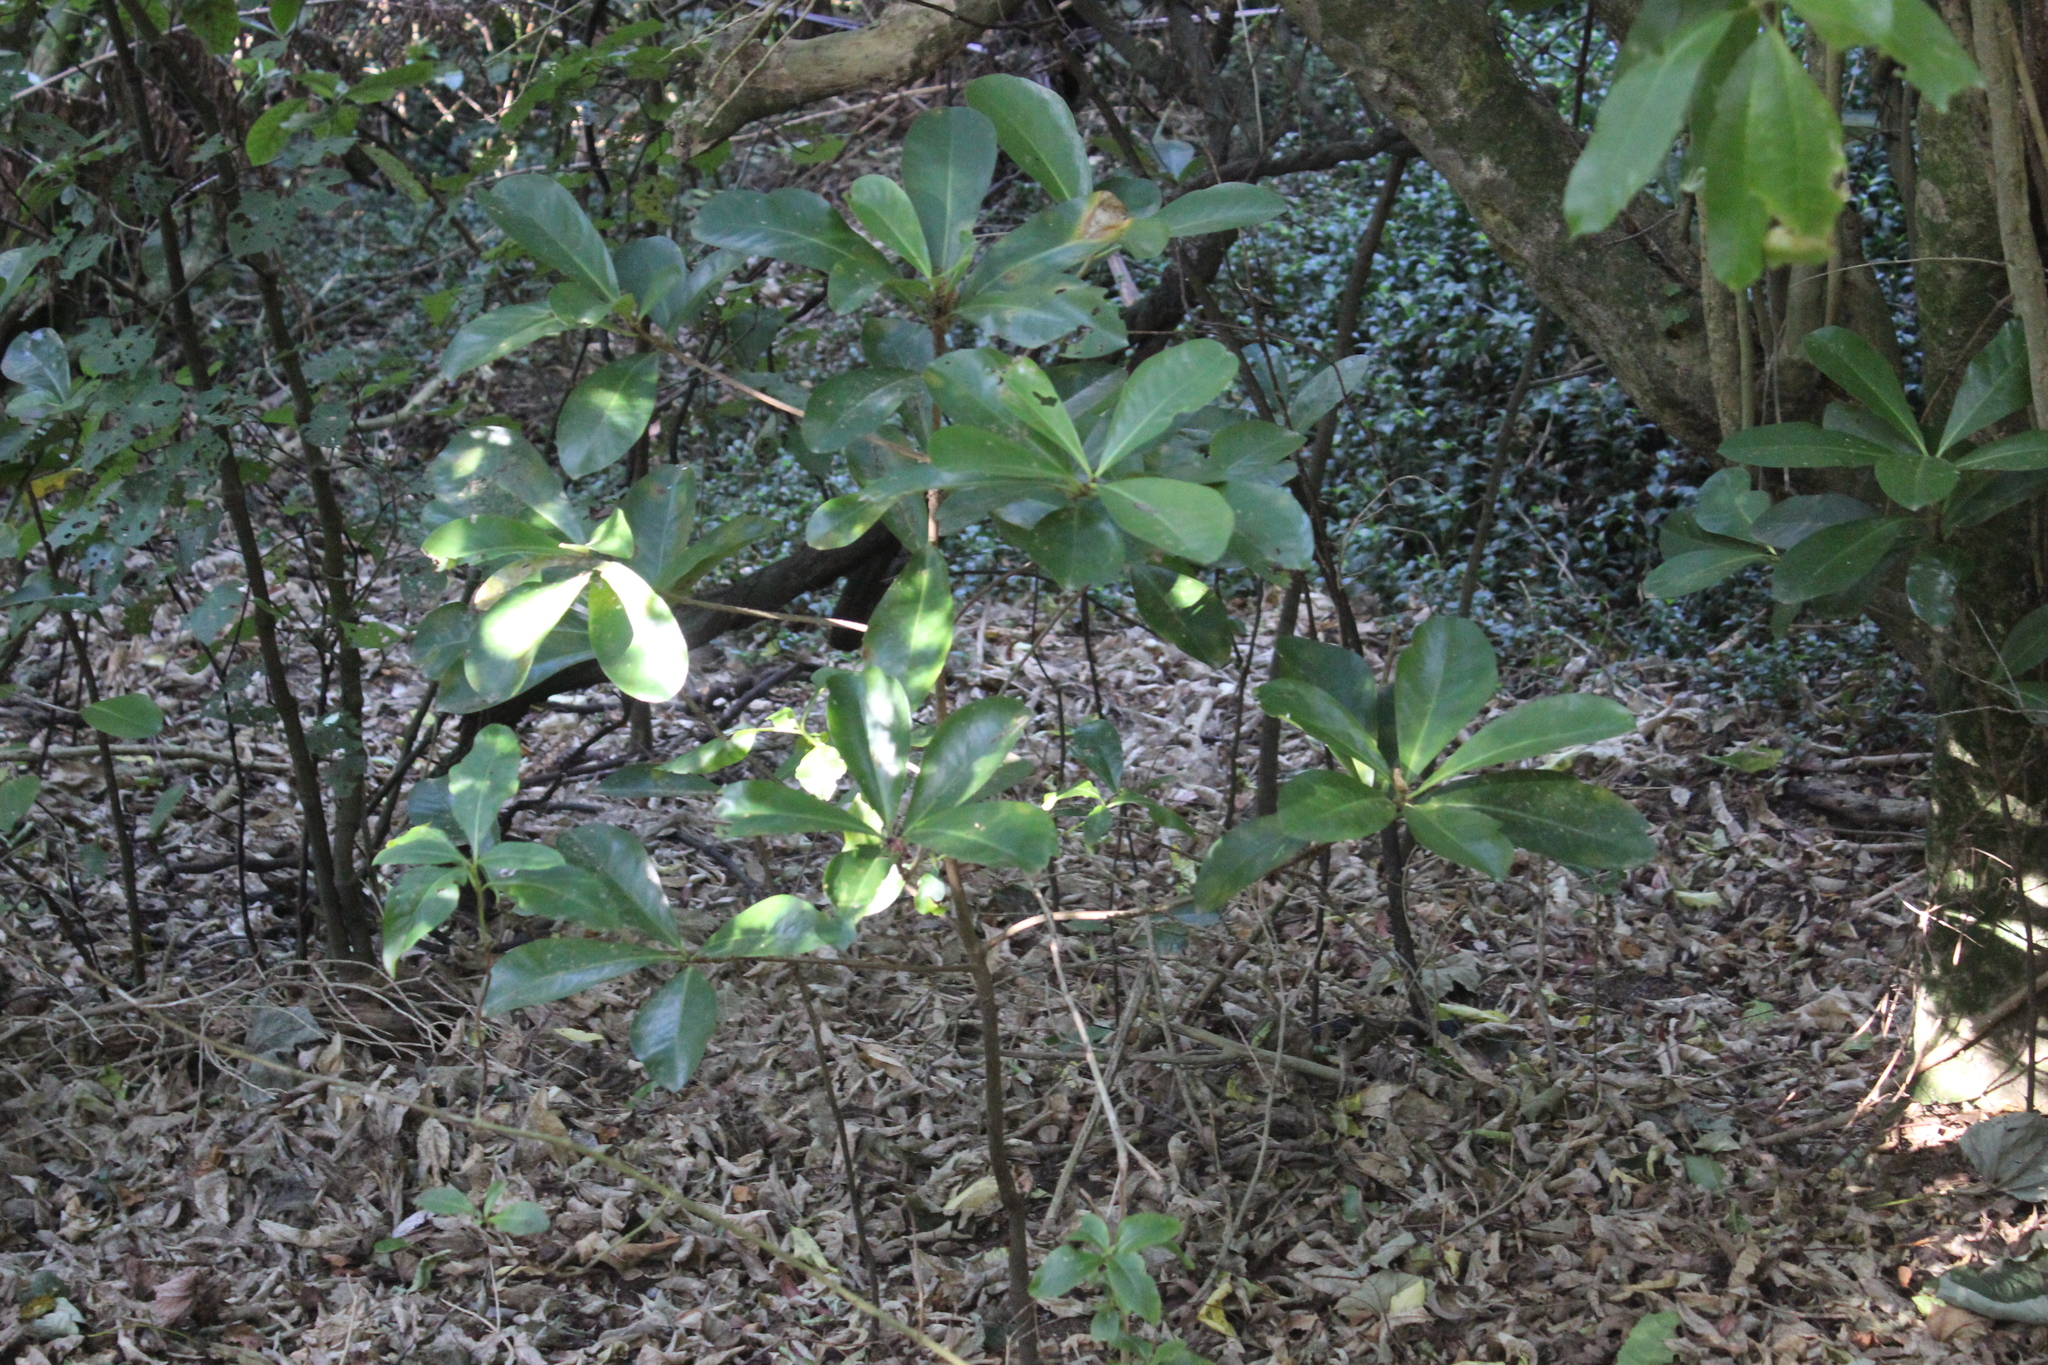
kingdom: Plantae
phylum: Tracheophyta
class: Magnoliopsida
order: Cucurbitales
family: Corynocarpaceae
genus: Corynocarpus
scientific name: Corynocarpus laevigatus
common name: New zealand laurel
